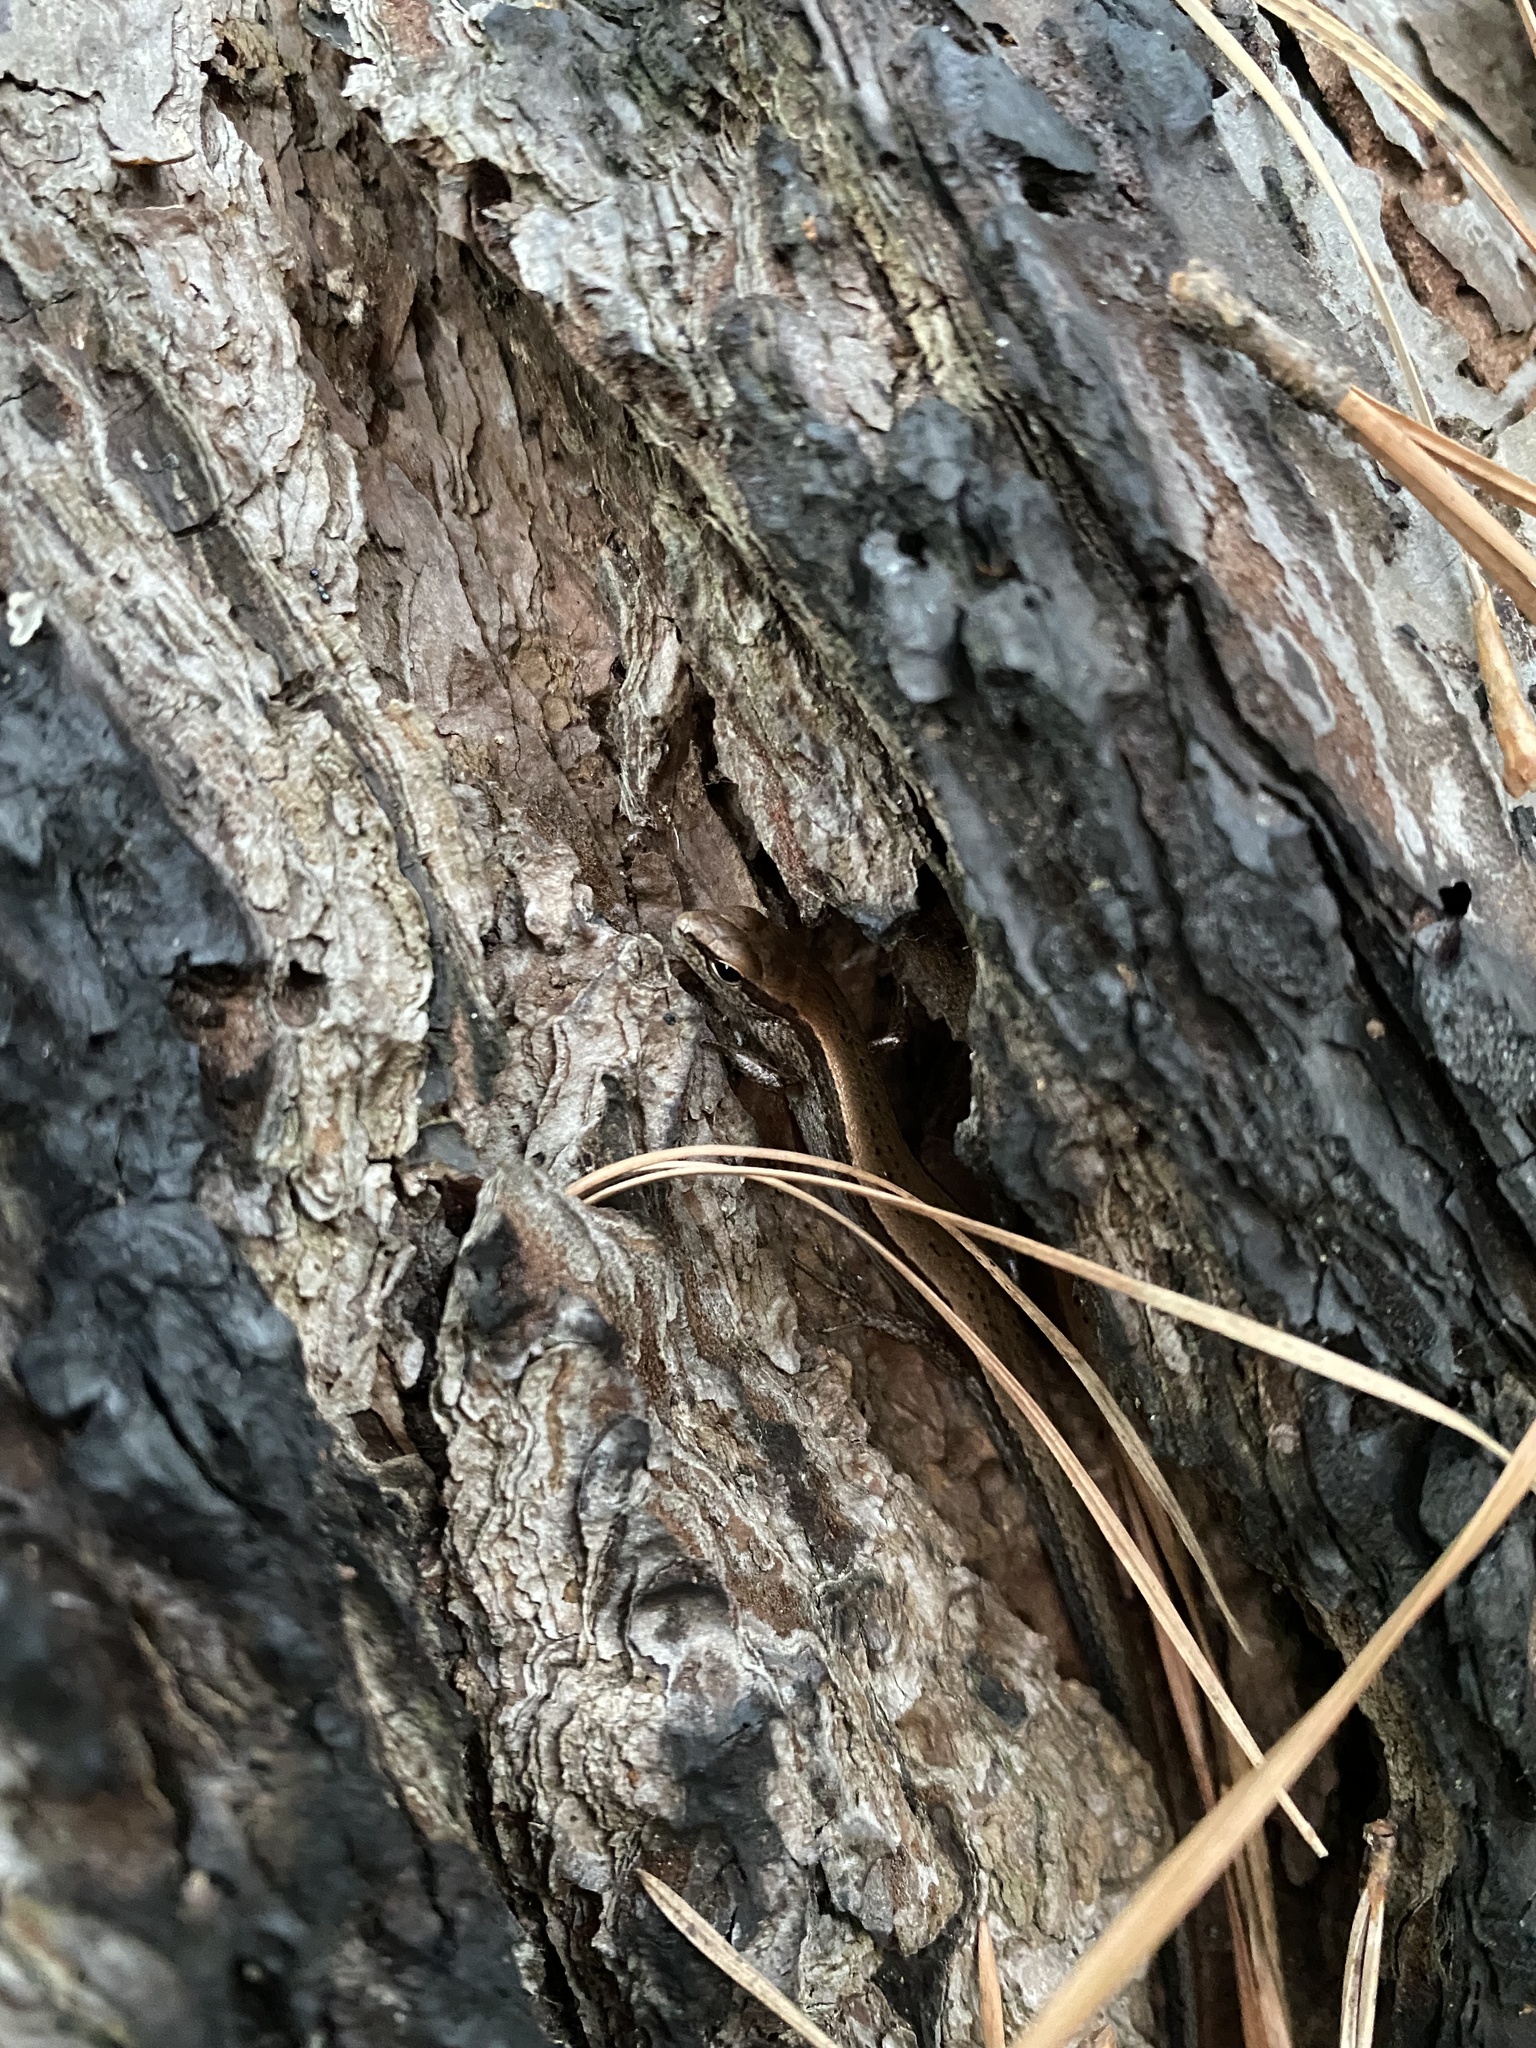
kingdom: Animalia
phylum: Chordata
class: Squamata
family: Scincidae
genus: Scincella
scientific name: Scincella lateralis
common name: Ground skink
